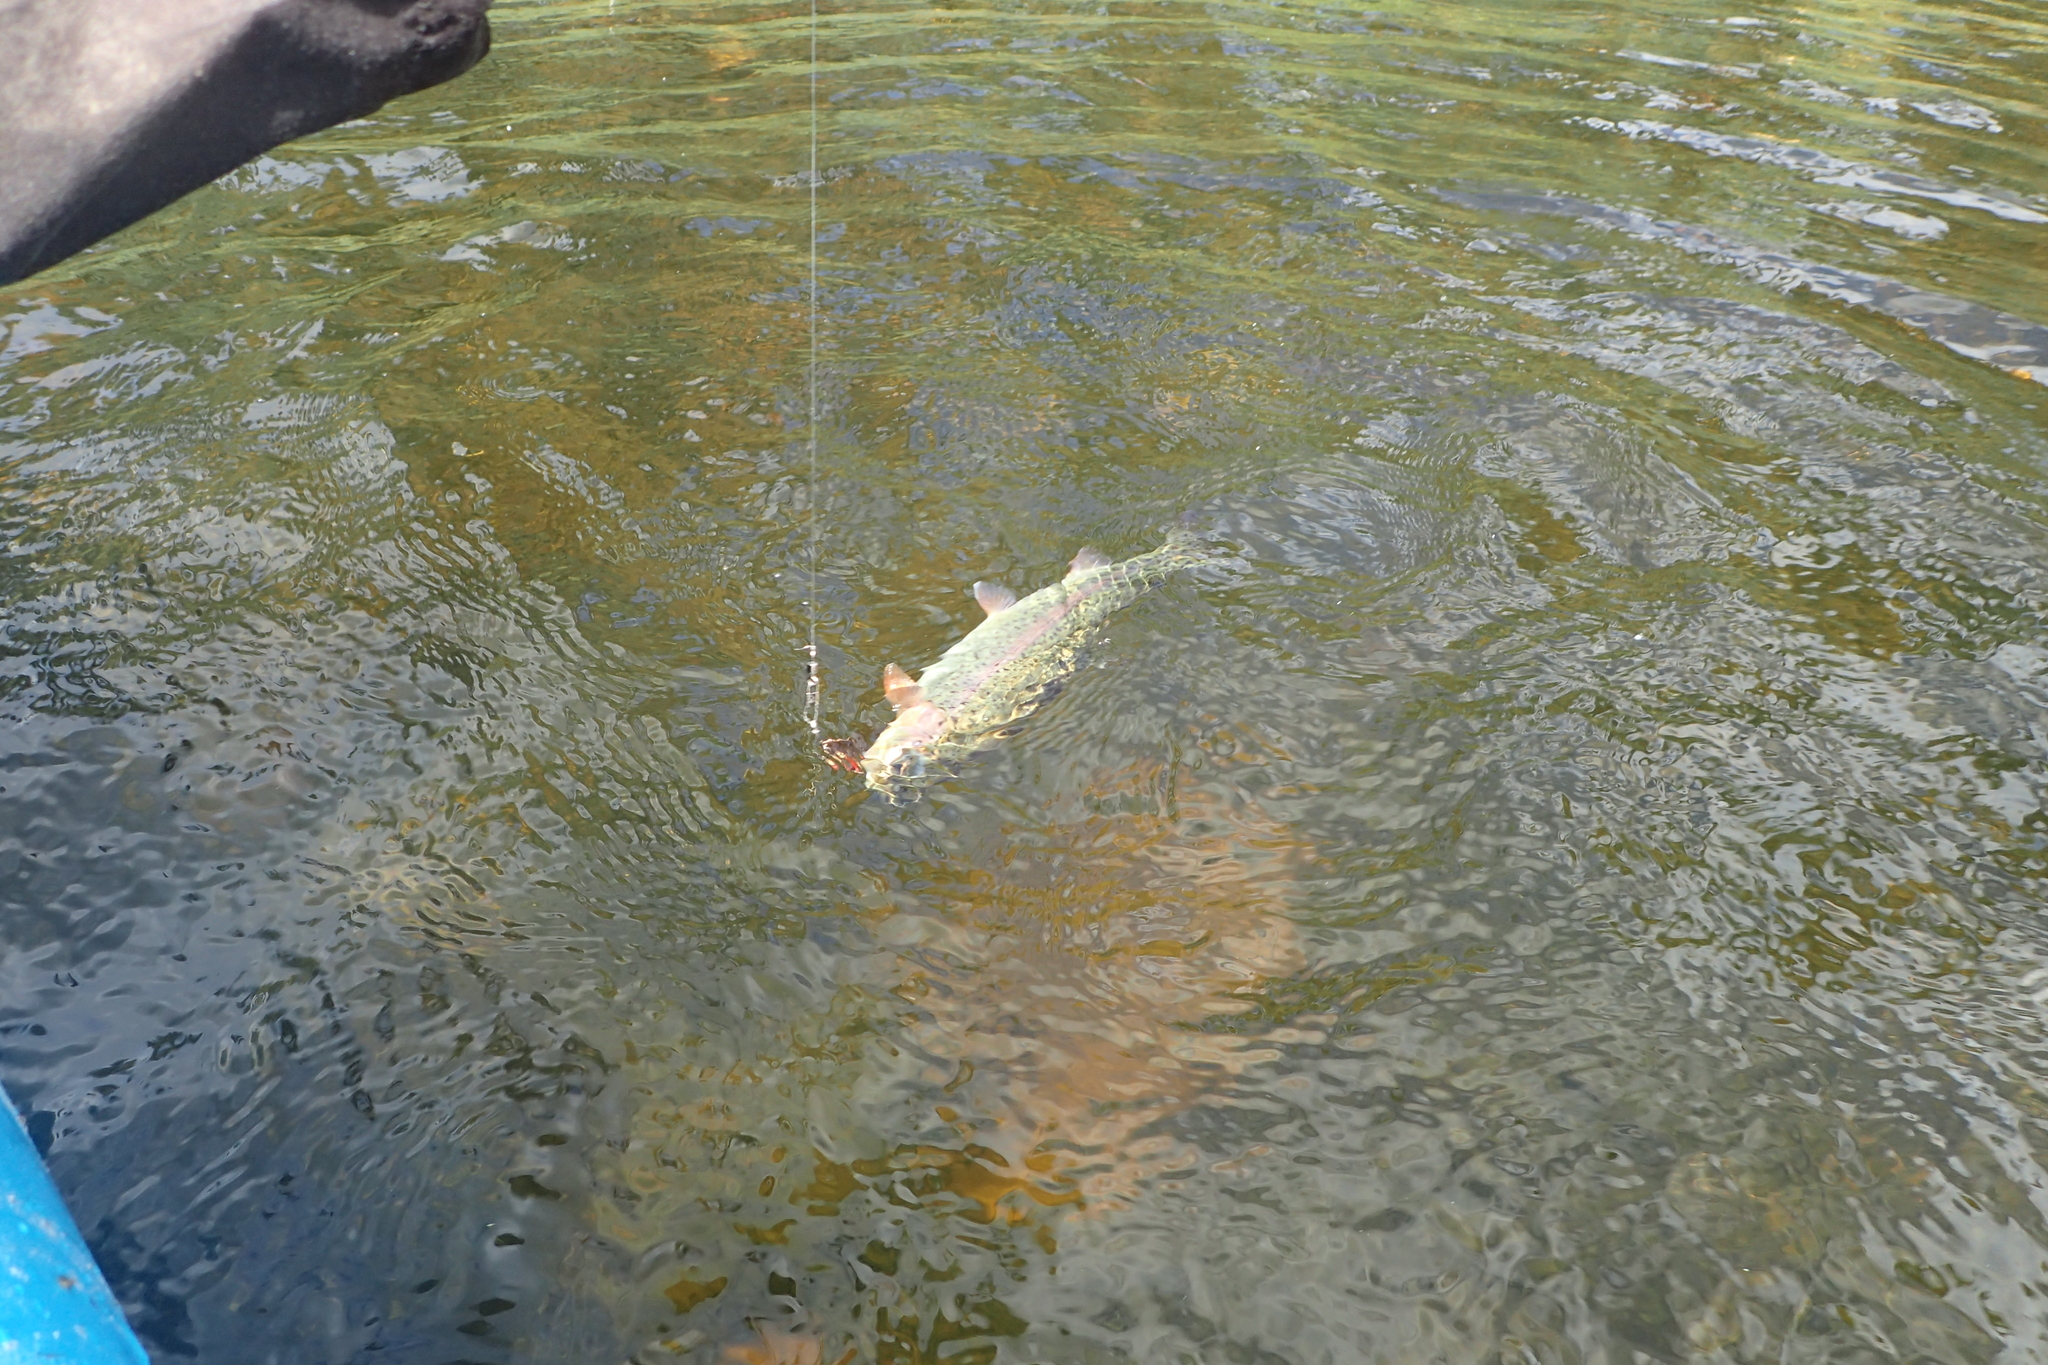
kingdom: Animalia
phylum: Chordata
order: Salmoniformes
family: Salmonidae
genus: Oncorhynchus
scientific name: Oncorhynchus mykiss
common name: Rainbow trout
